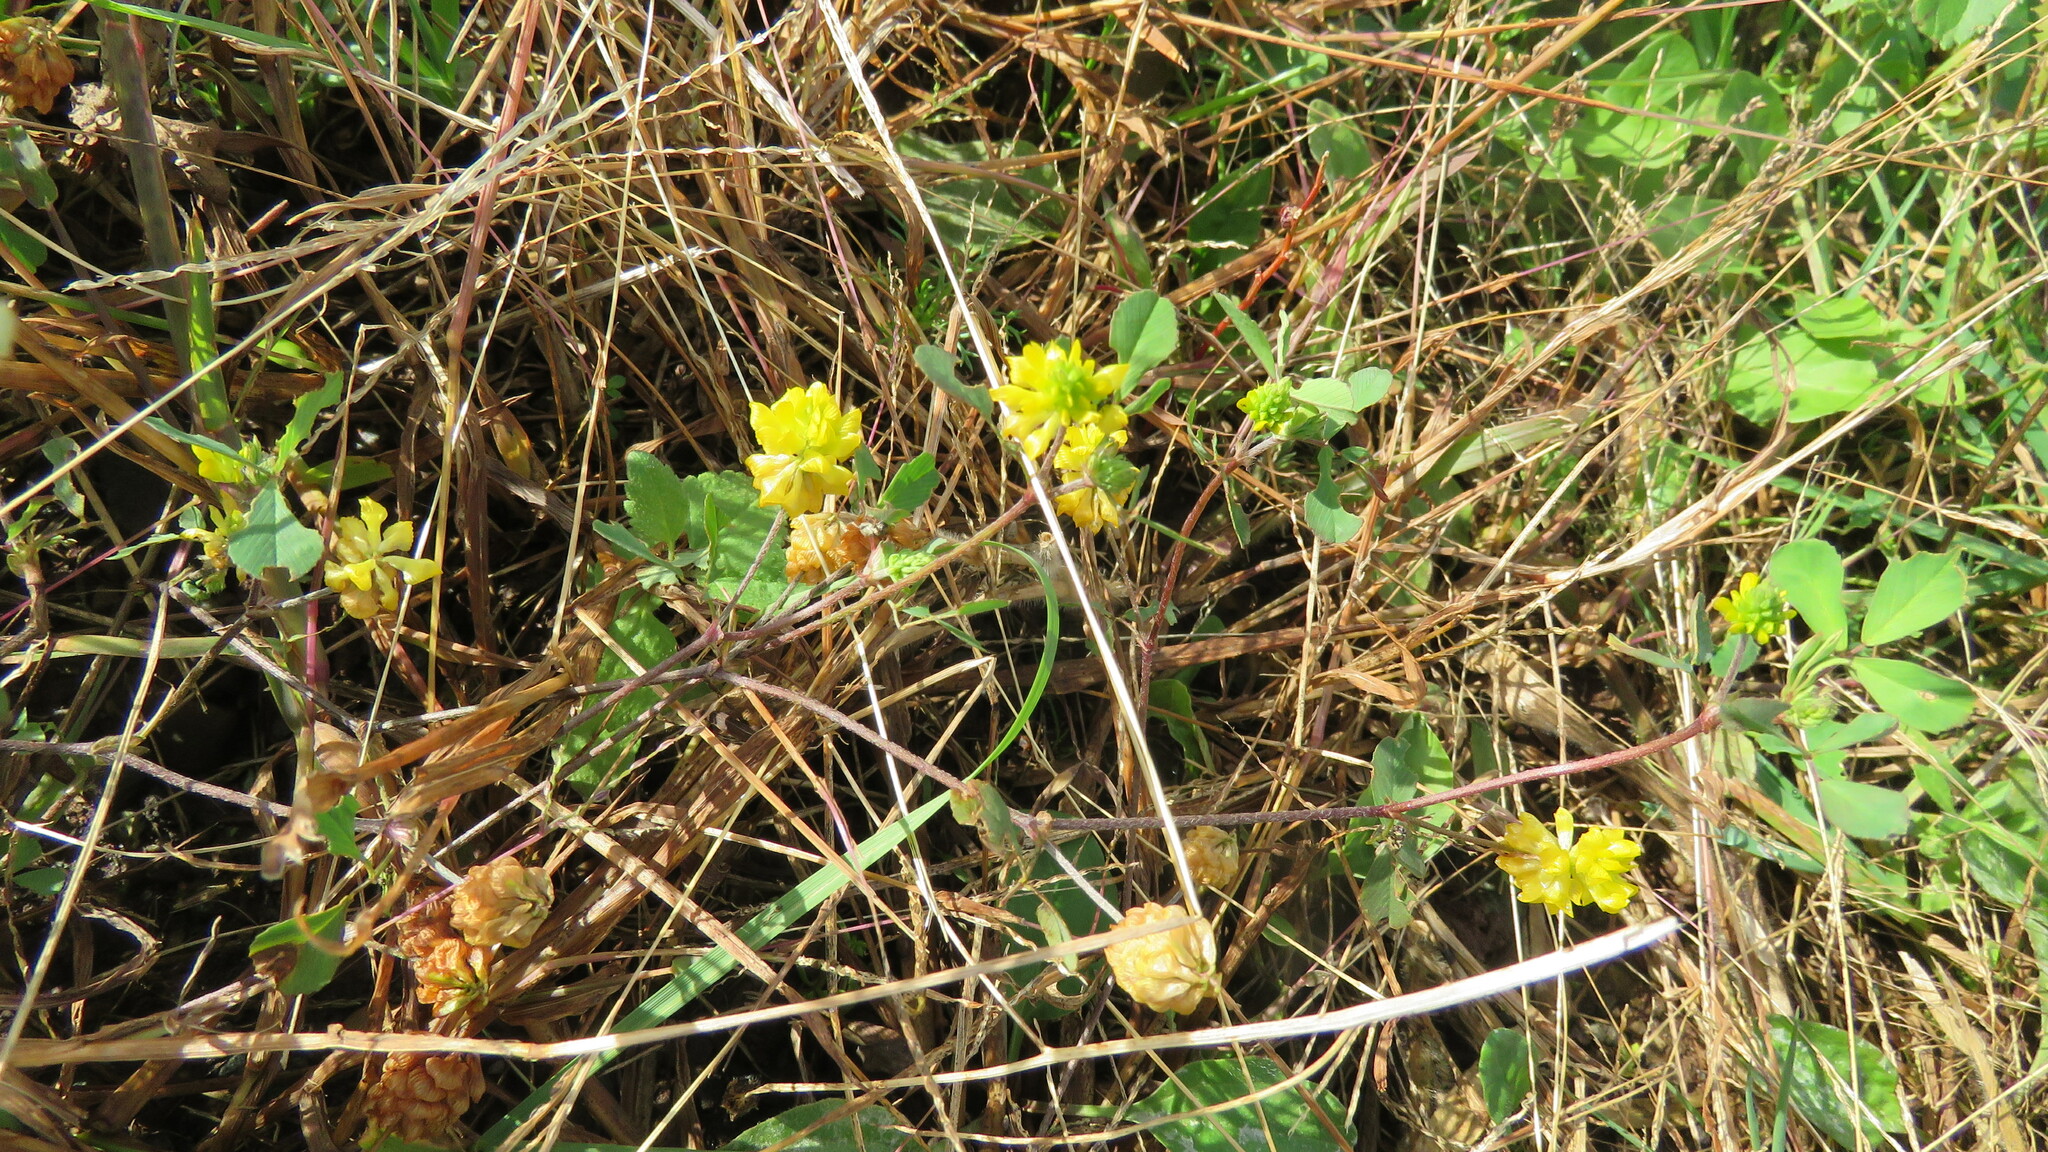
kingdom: Plantae
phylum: Tracheophyta
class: Magnoliopsida
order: Fabales
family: Fabaceae
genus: Trifolium
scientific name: Trifolium campestre
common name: Field clover
